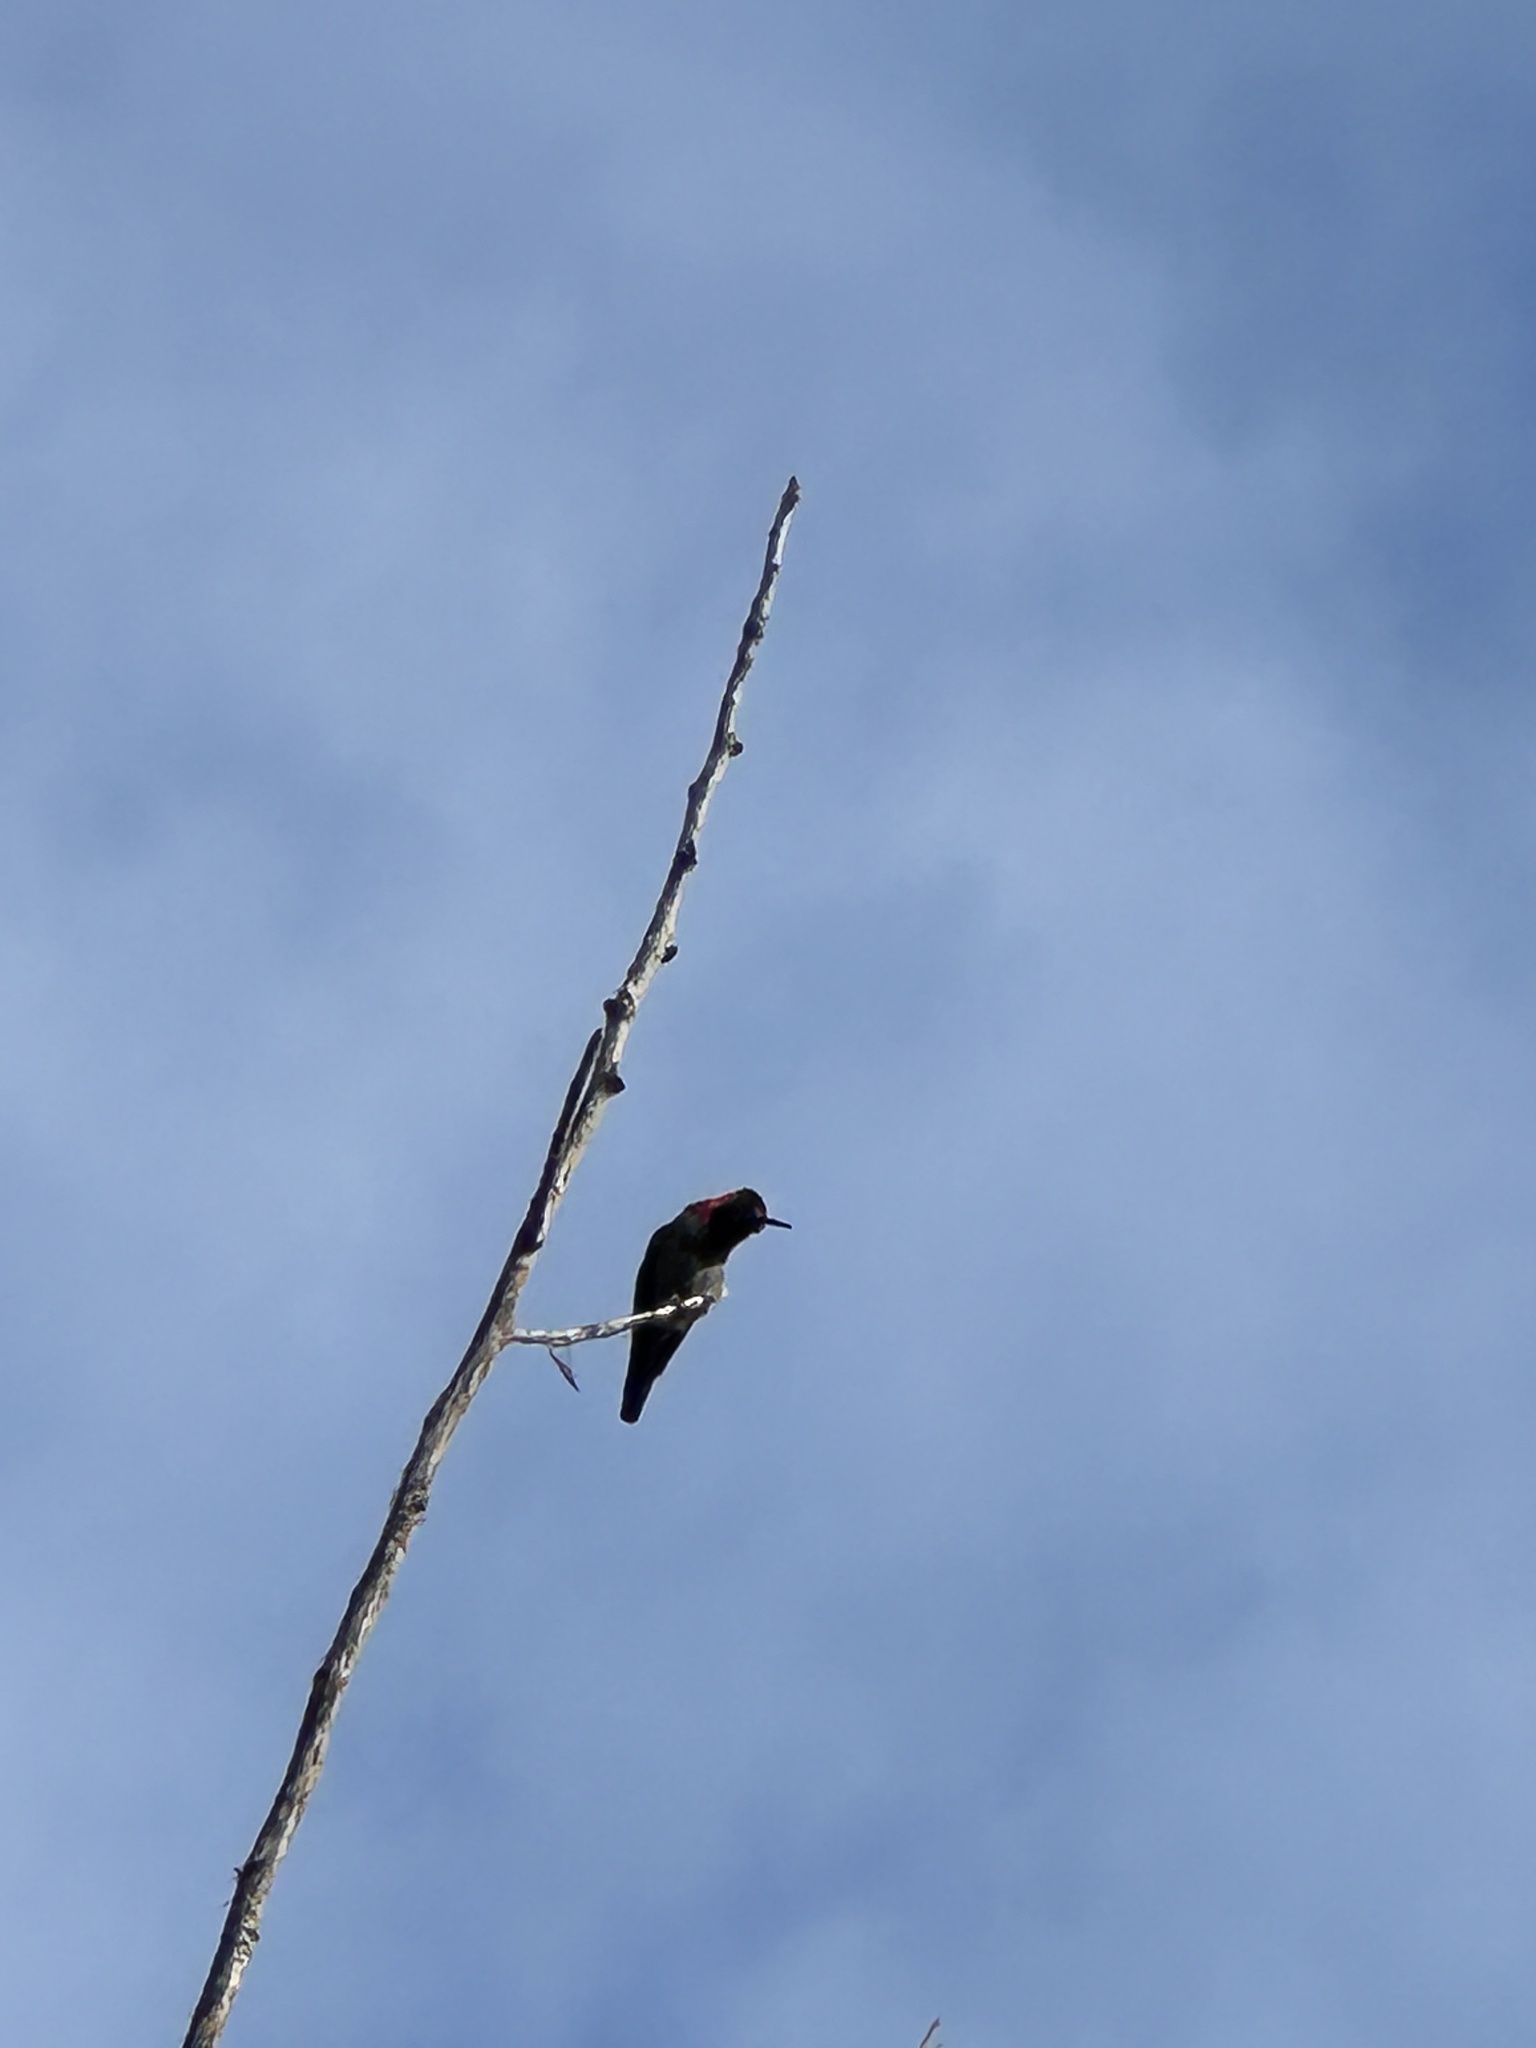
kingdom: Animalia
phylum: Chordata
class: Aves
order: Apodiformes
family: Trochilidae
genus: Calypte
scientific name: Calypte anna
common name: Anna's hummingbird
